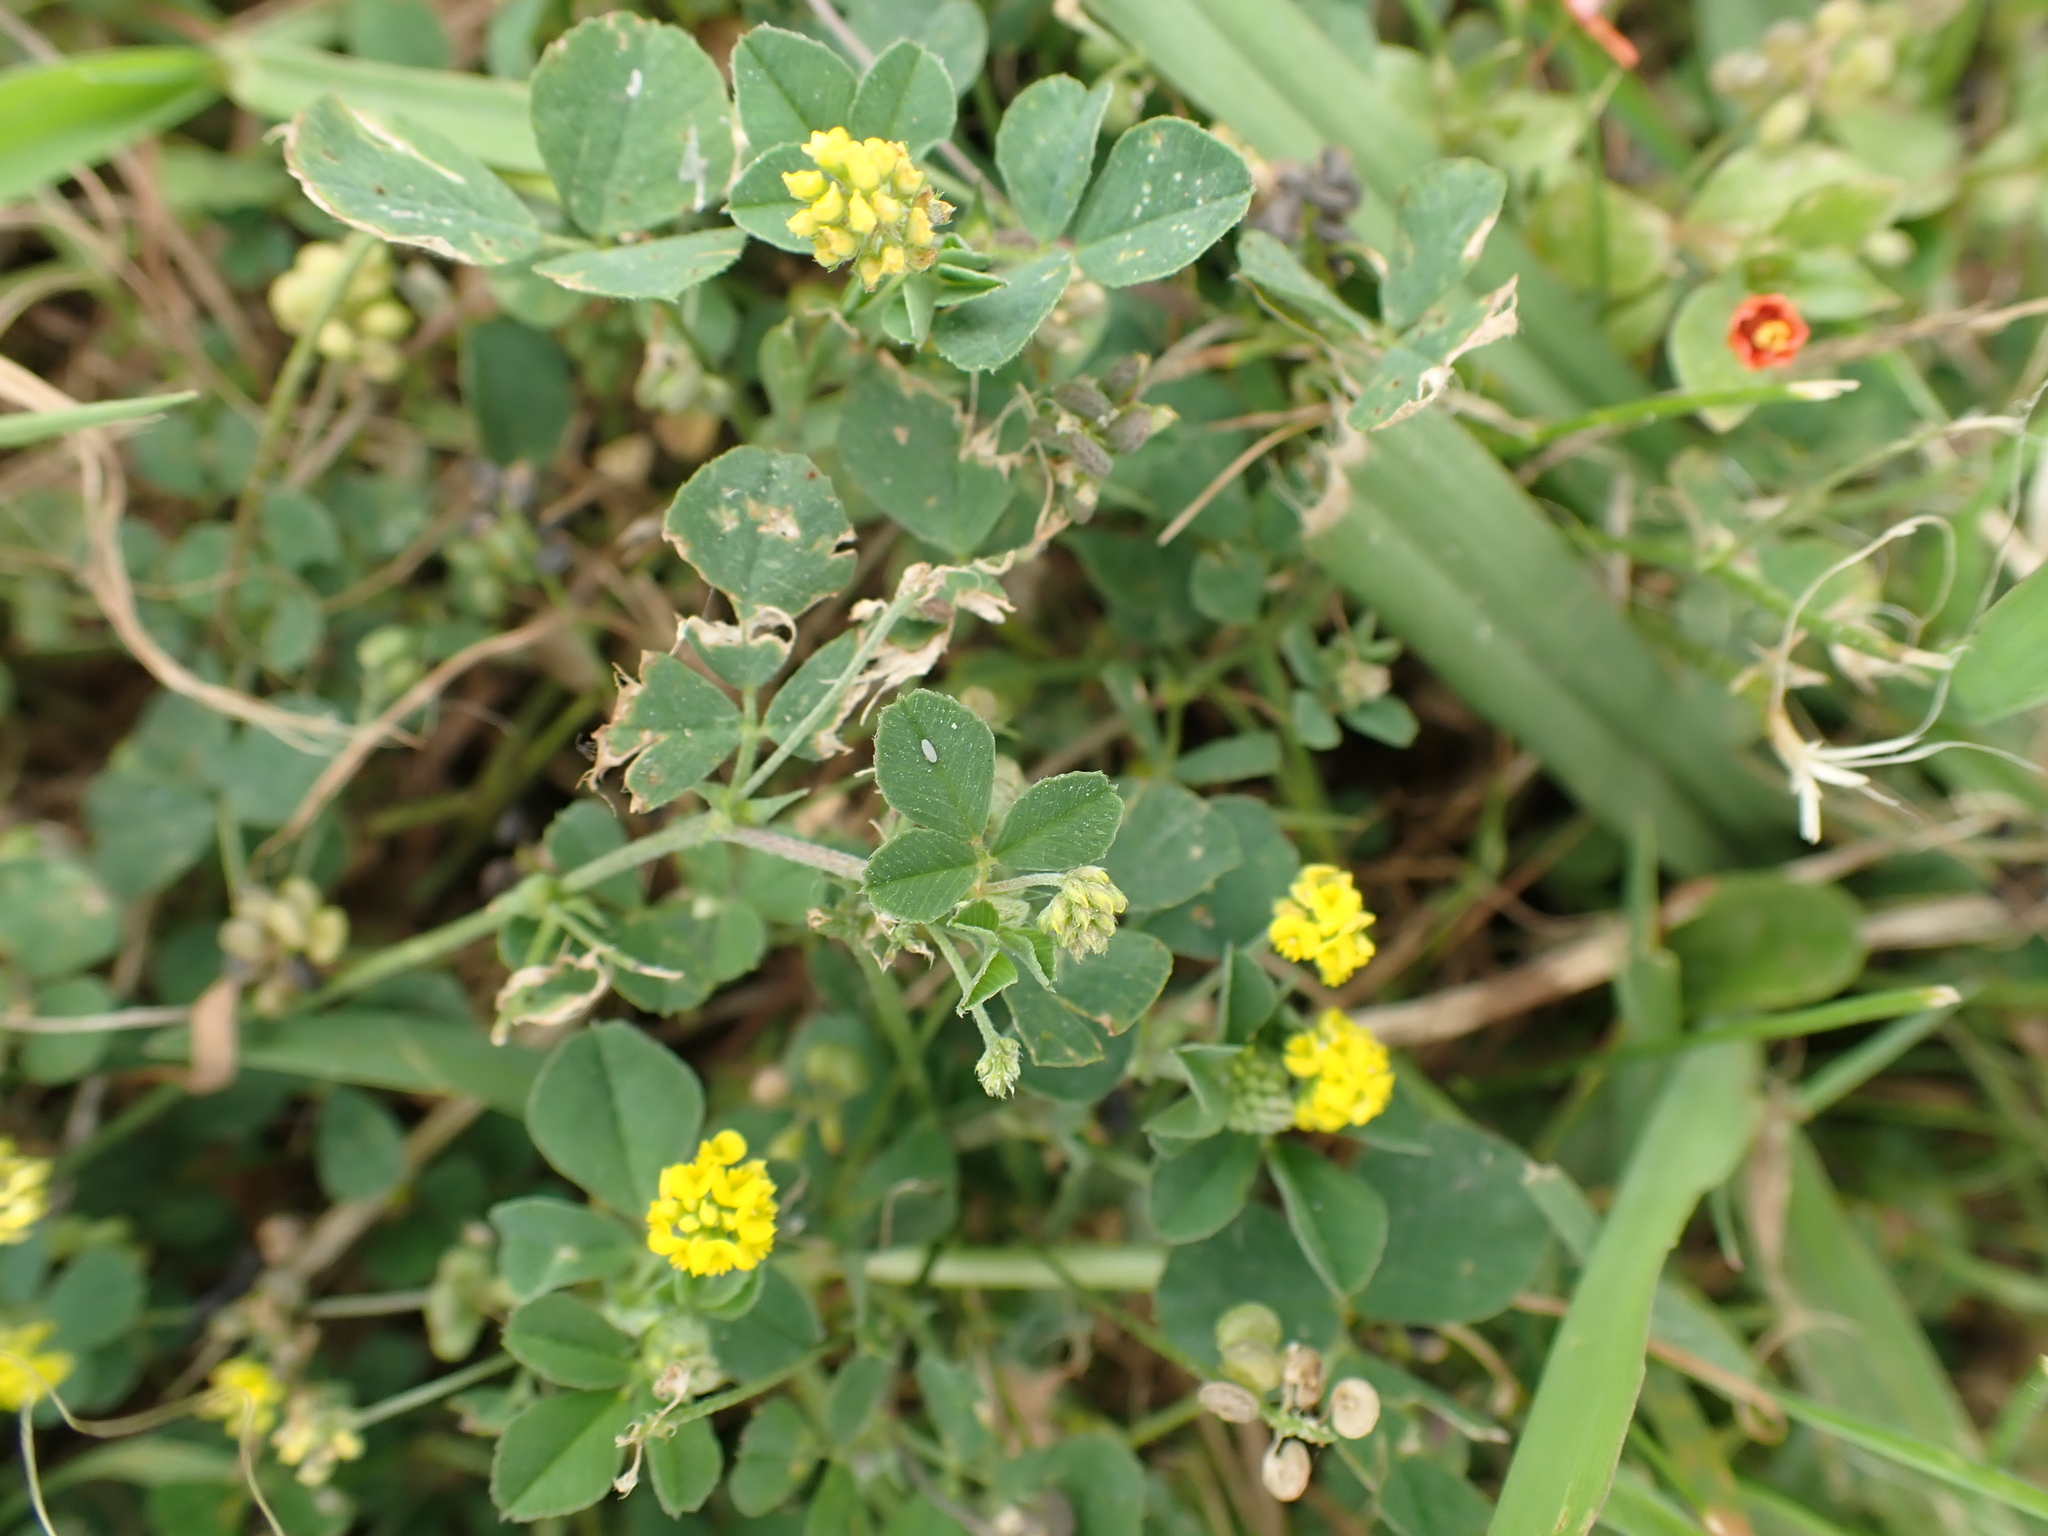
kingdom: Plantae
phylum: Tracheophyta
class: Magnoliopsida
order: Fabales
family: Fabaceae
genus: Medicago
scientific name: Medicago lupulina
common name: Black medick
